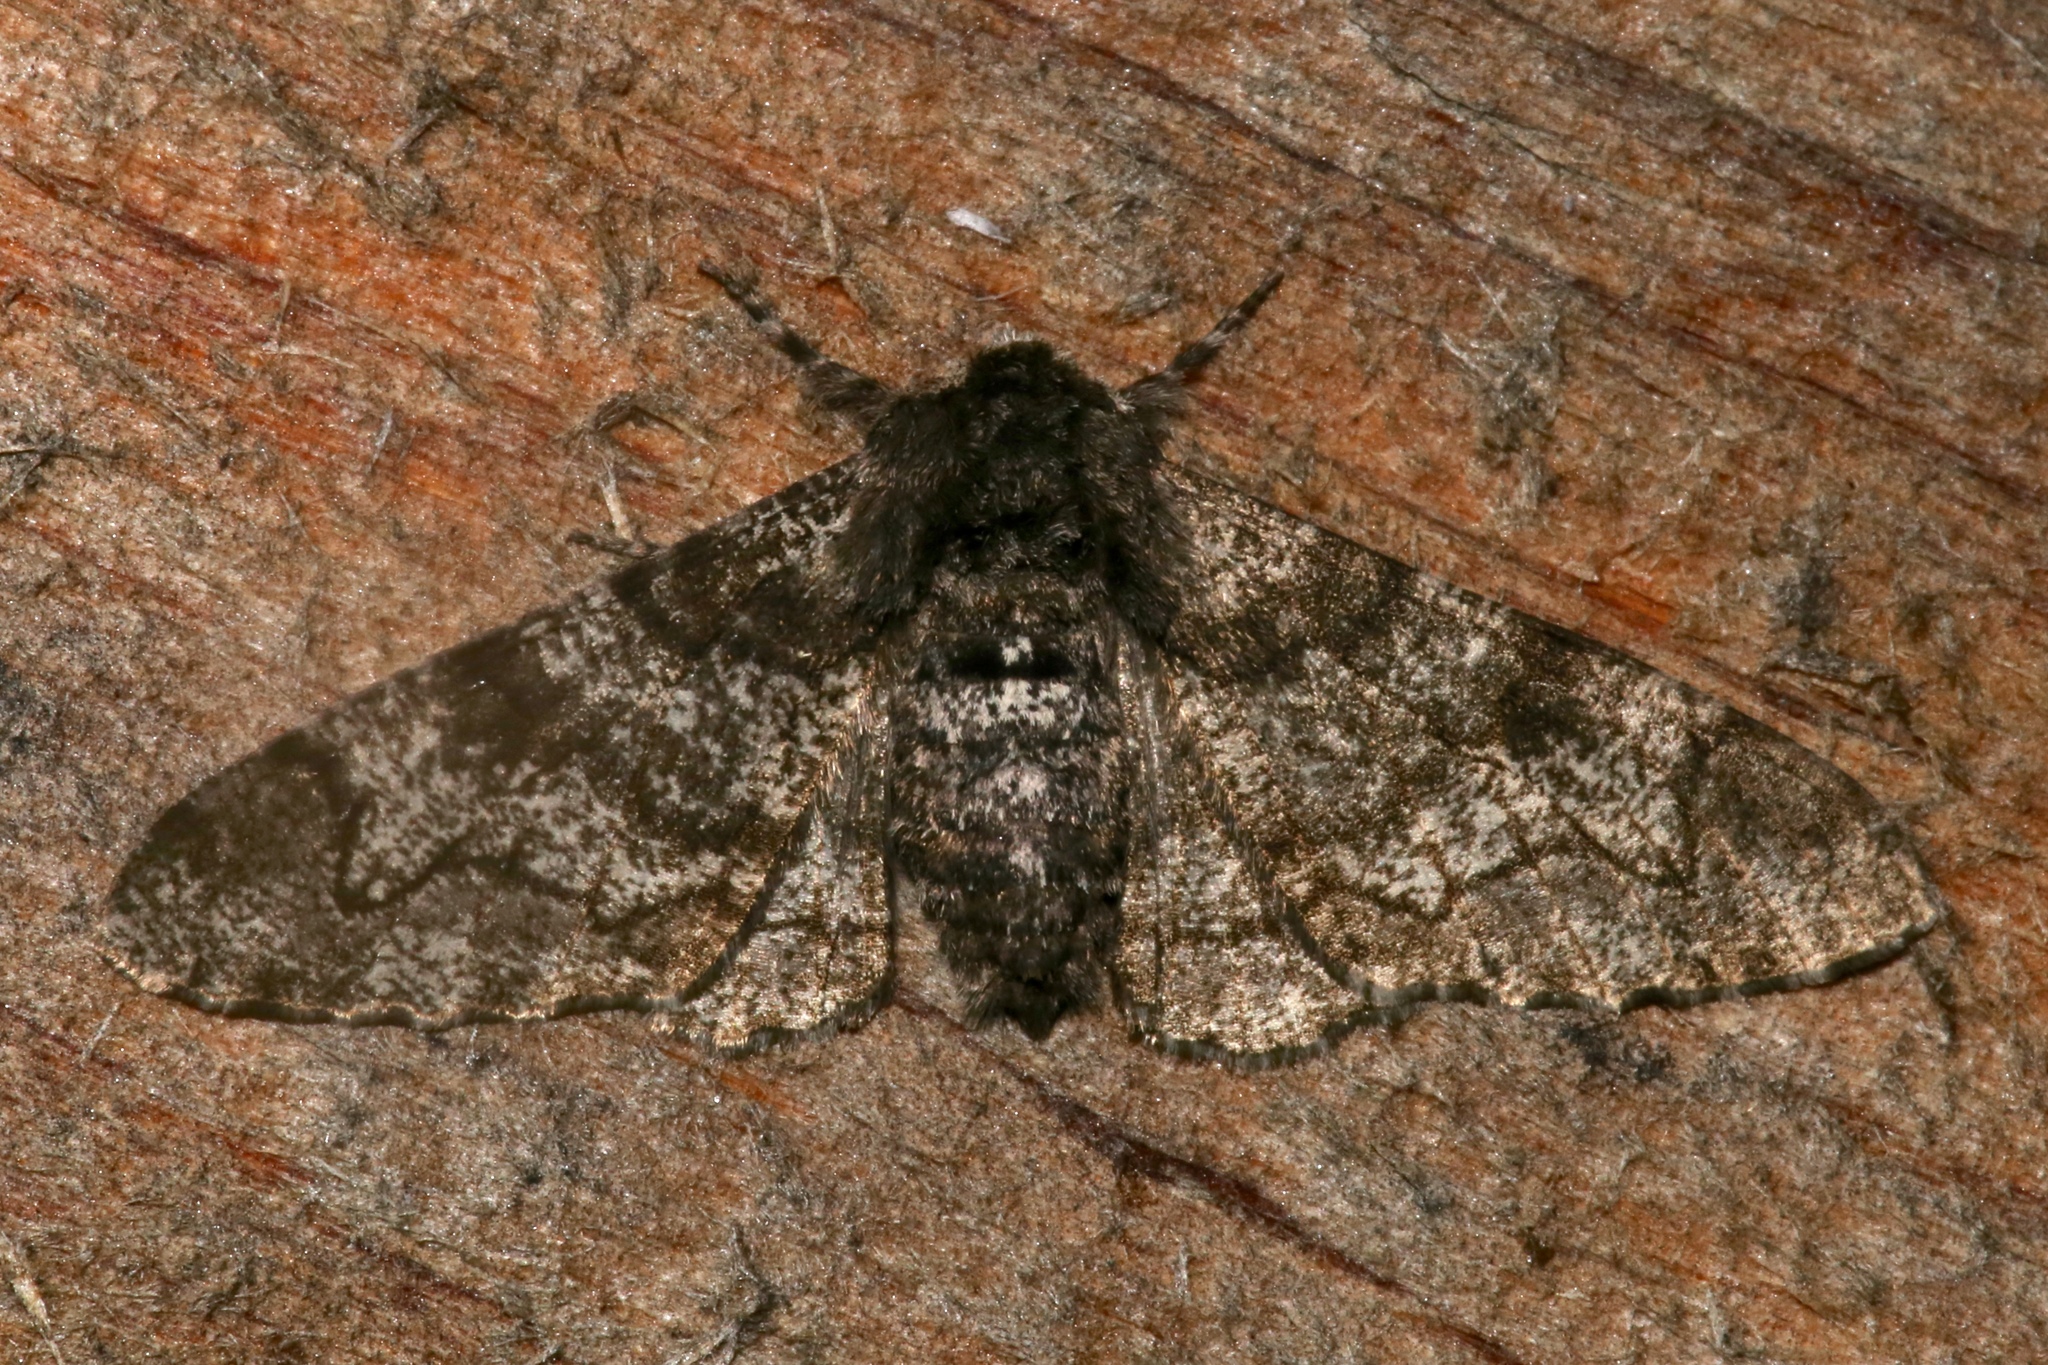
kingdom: Animalia
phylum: Arthropoda
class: Insecta
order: Lepidoptera
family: Geometridae
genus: Biston
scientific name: Biston betularia
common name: Peppered moth
